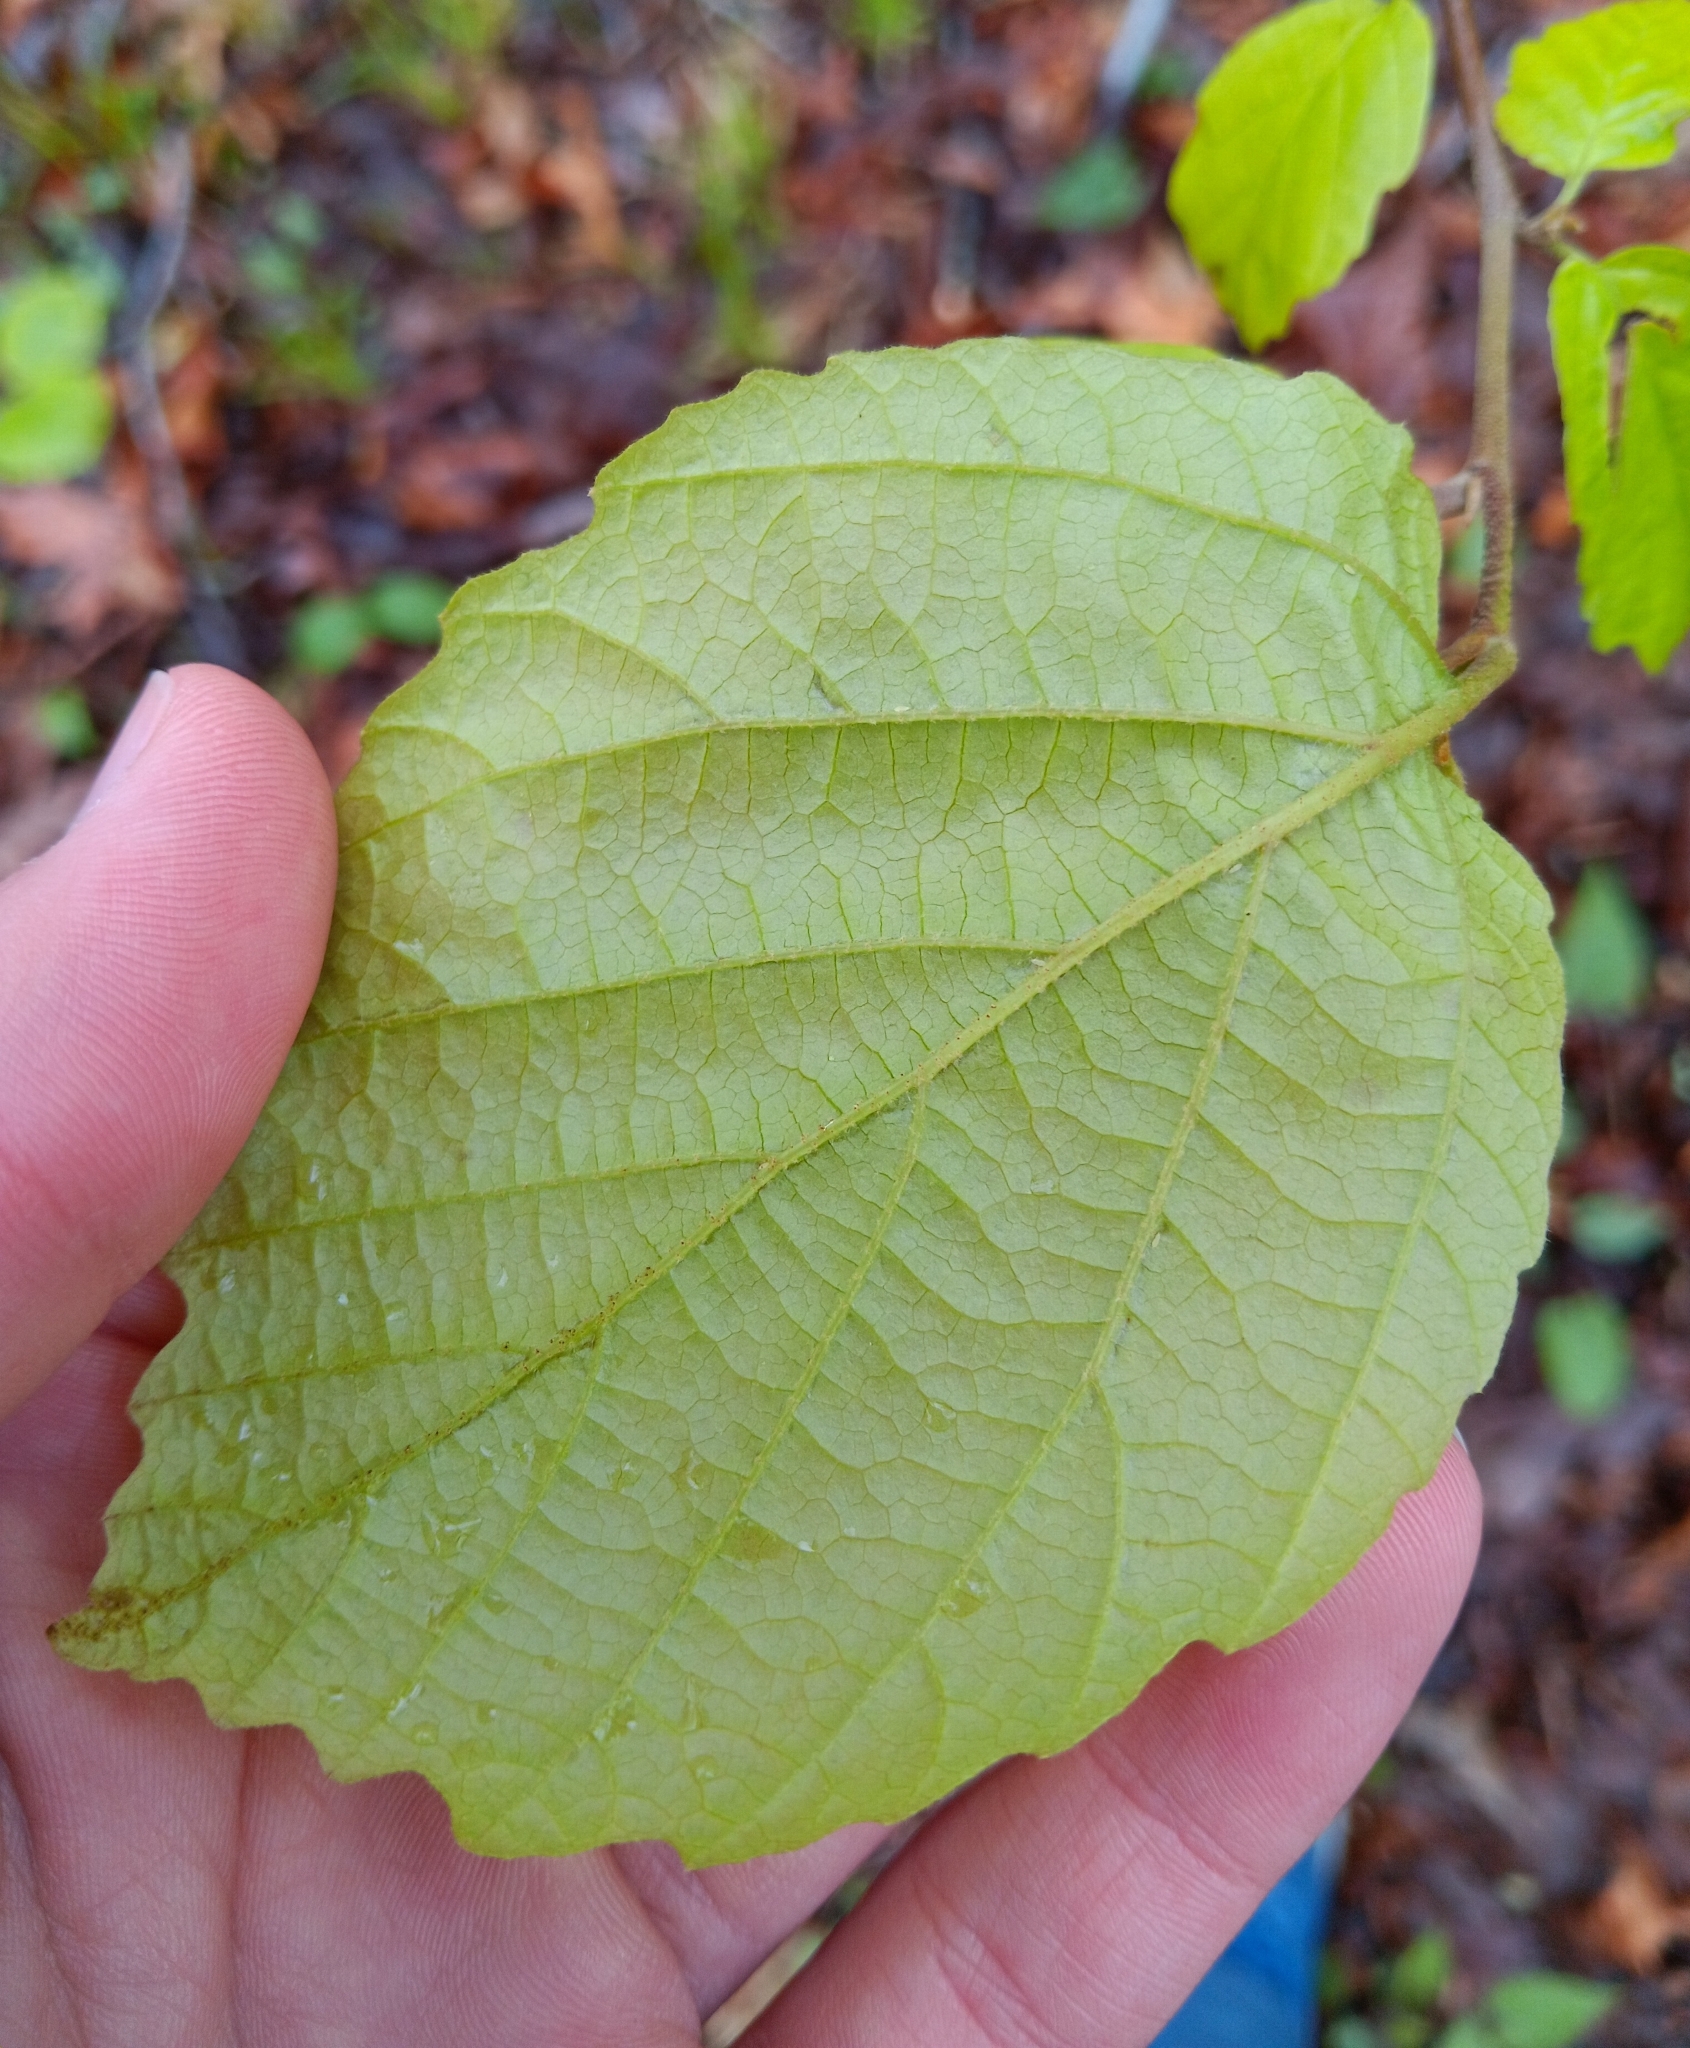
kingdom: Plantae
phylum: Tracheophyta
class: Magnoliopsida
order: Saxifragales
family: Hamamelidaceae
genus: Hamamelis
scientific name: Hamamelis virginiana
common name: Witch-hazel
